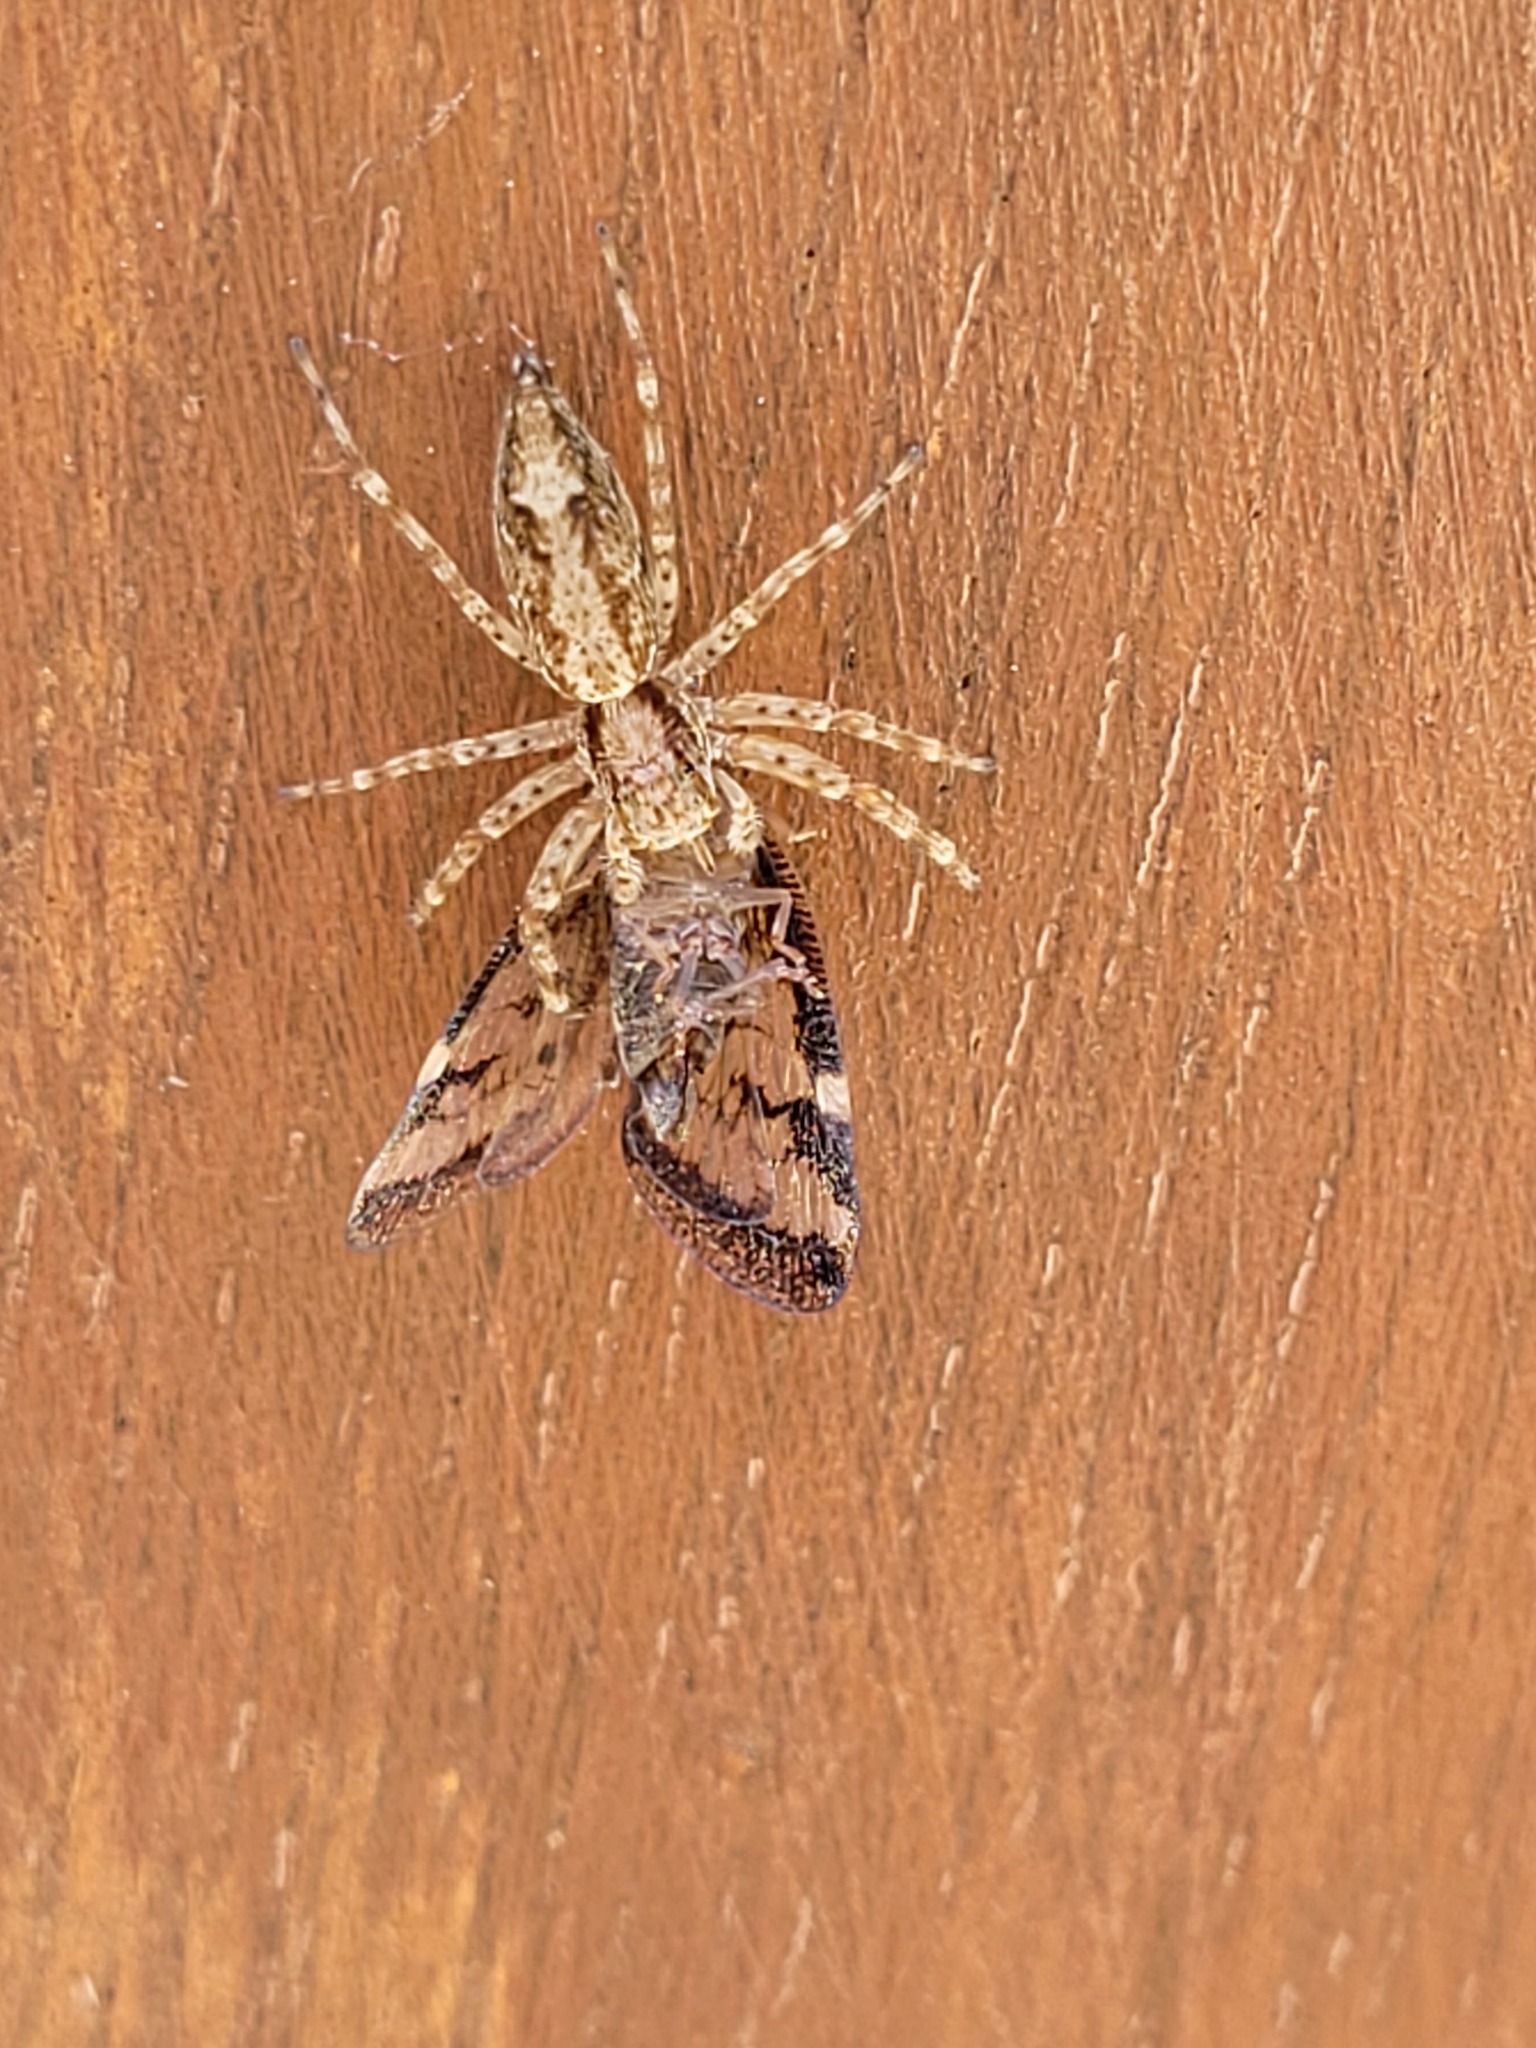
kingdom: Animalia
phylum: Arthropoda
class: Arachnida
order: Araneae
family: Salticidae
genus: Helpis
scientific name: Helpis minitabunda
